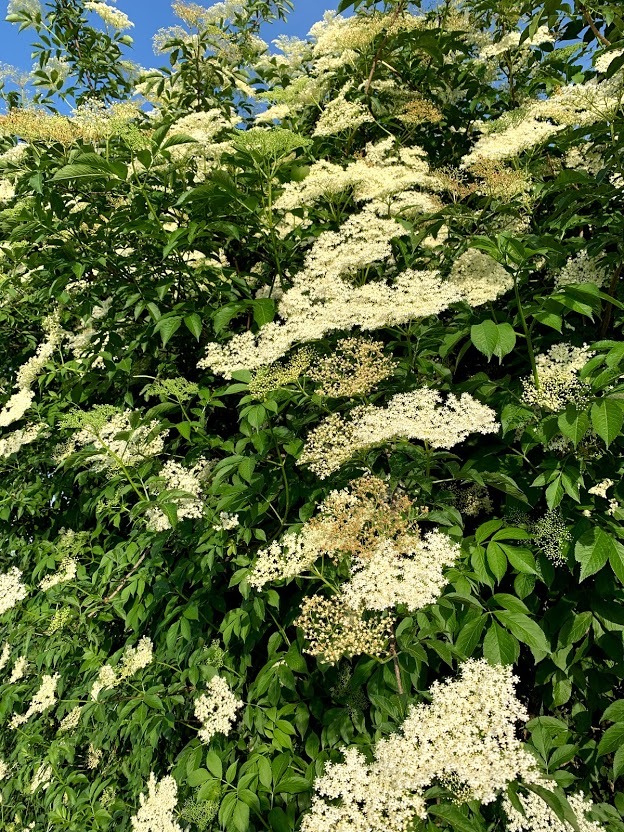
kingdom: Plantae
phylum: Tracheophyta
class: Magnoliopsida
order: Dipsacales
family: Viburnaceae
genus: Sambucus
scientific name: Sambucus nigra
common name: Elder
